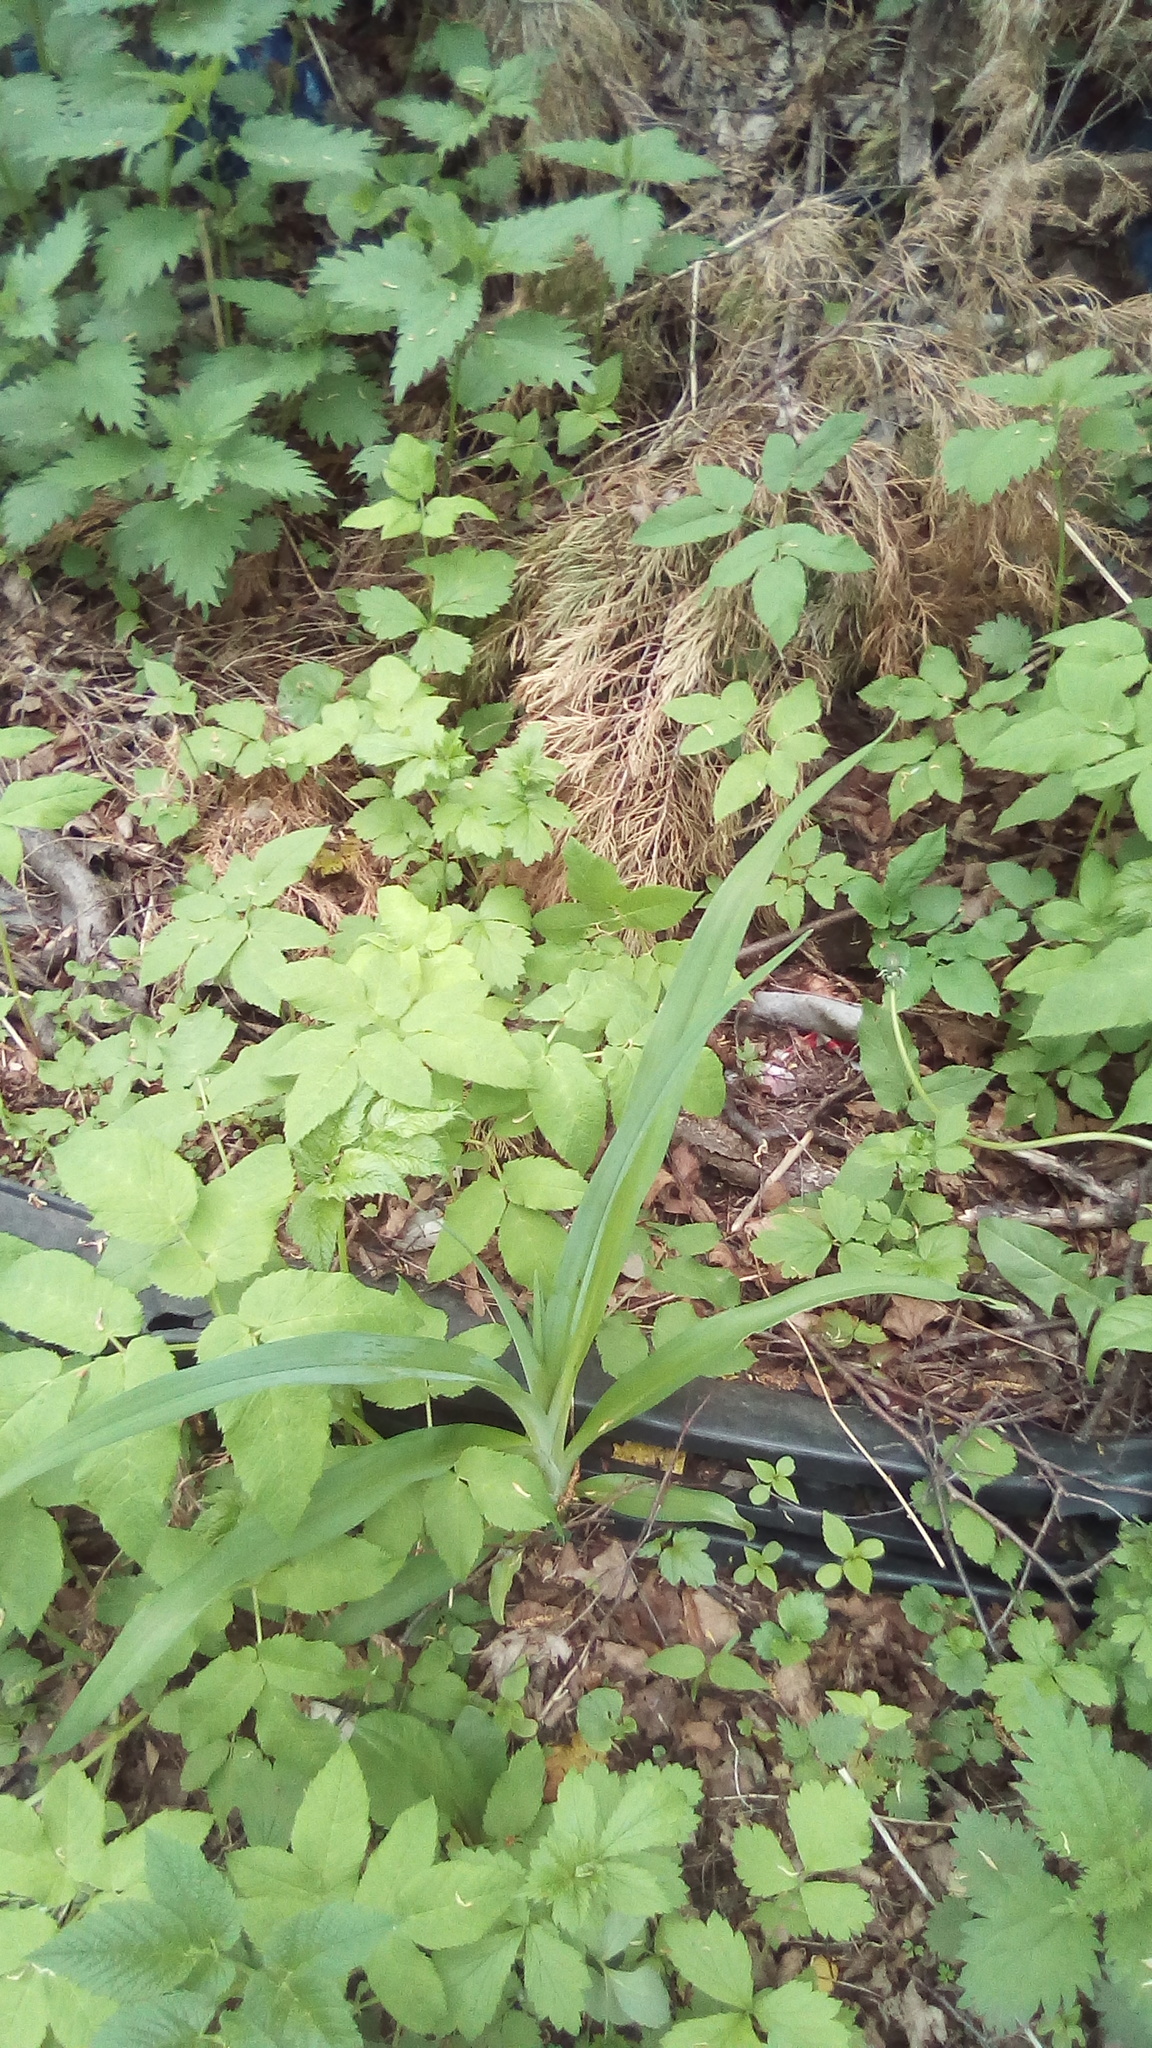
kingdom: Plantae
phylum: Tracheophyta
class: Liliopsida
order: Asparagales
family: Asphodelaceae
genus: Hemerocallis
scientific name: Hemerocallis fulva
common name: Orange day-lily
